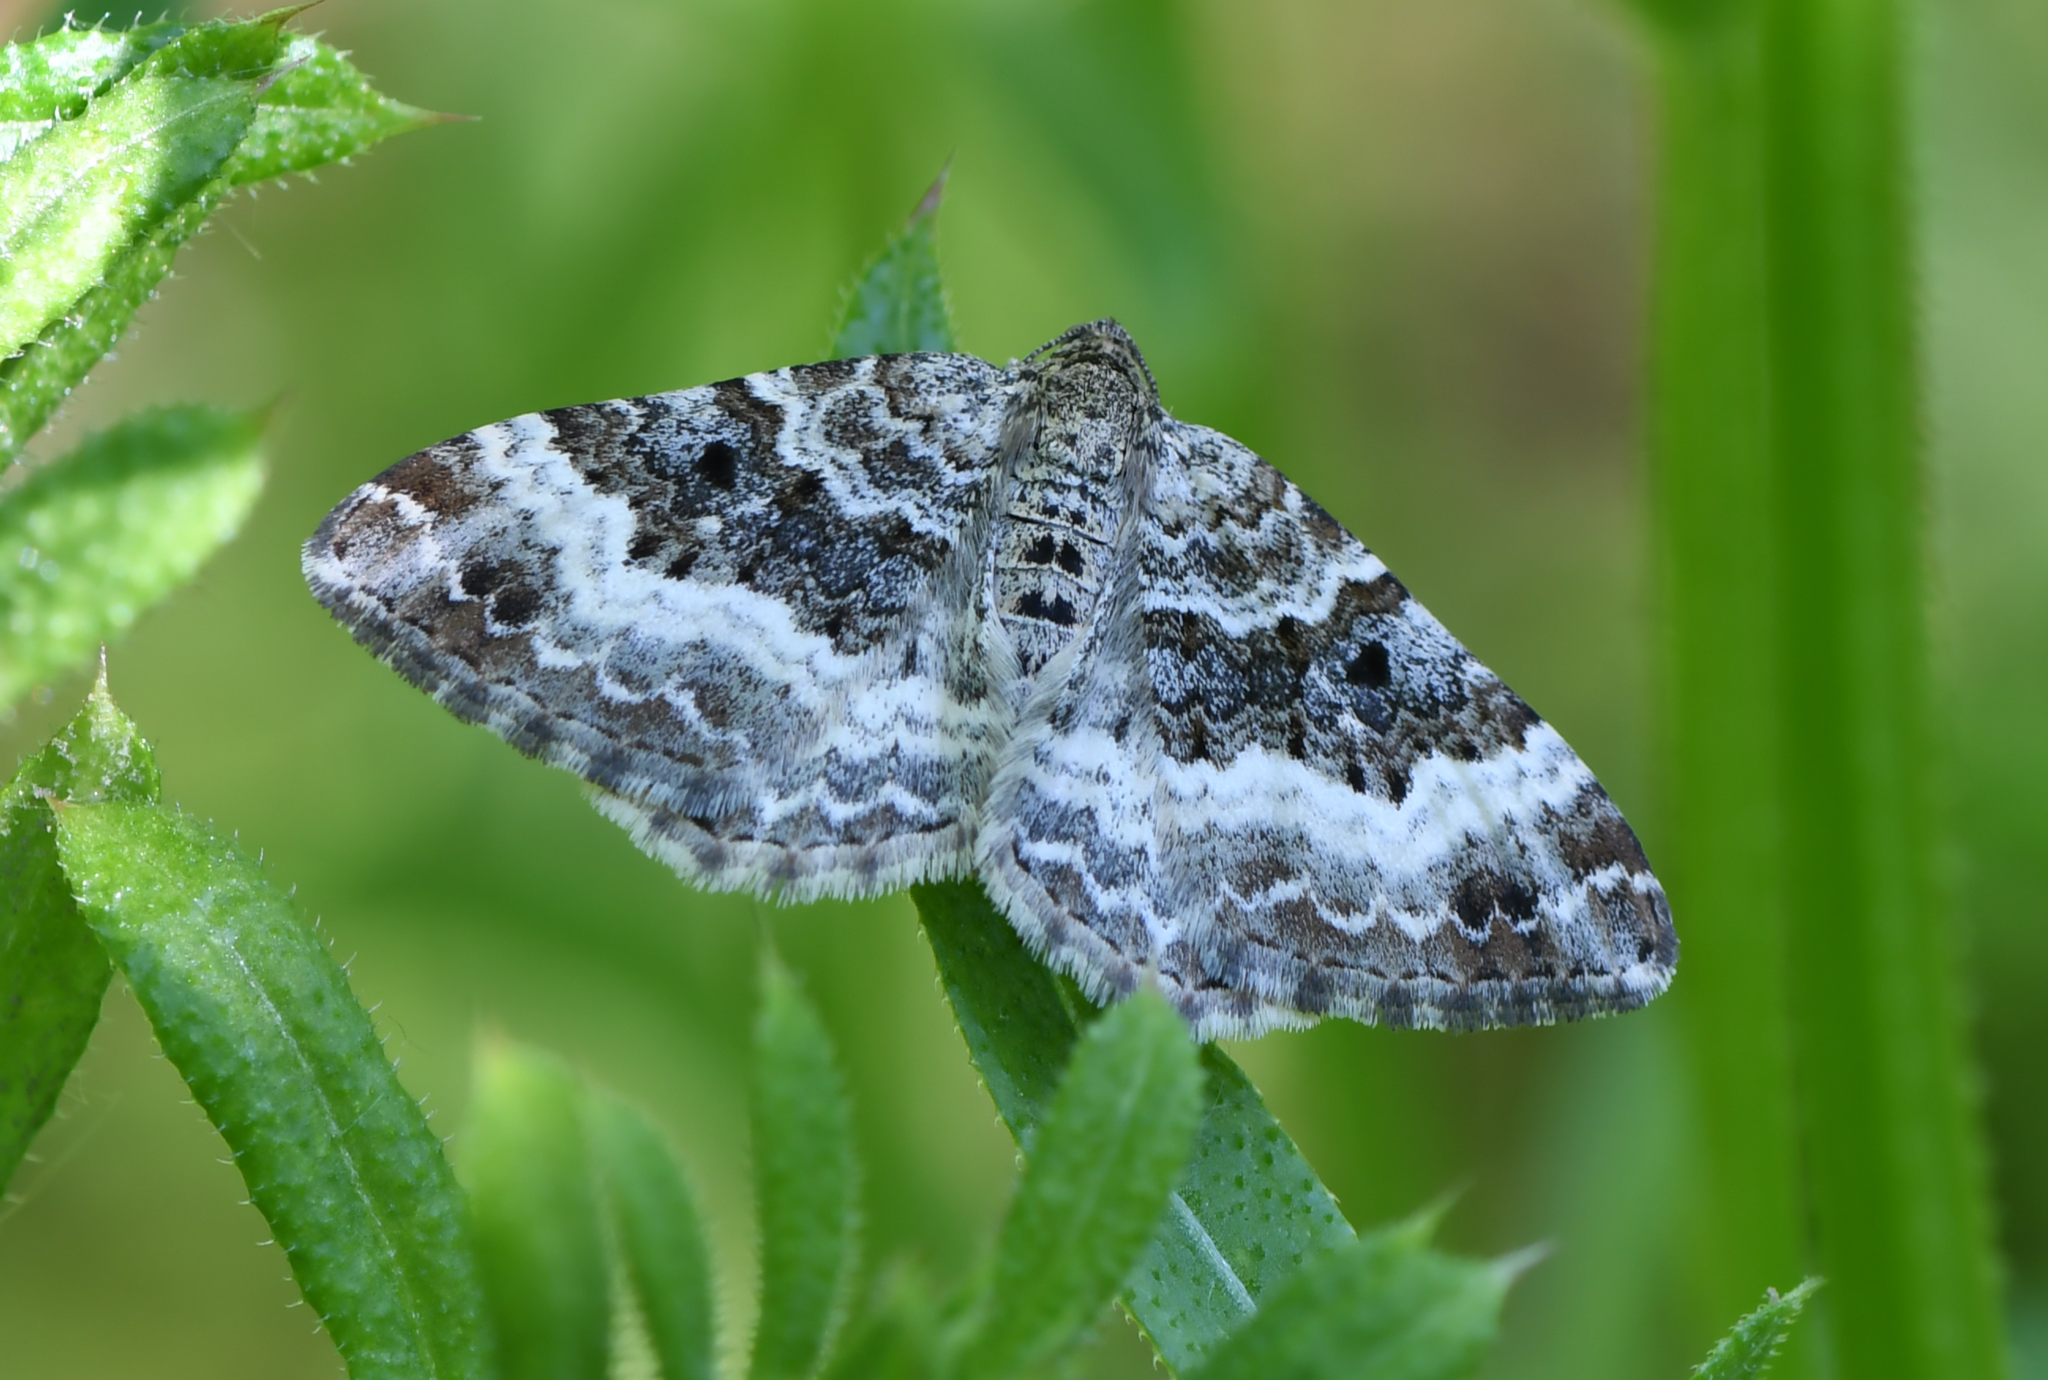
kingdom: Animalia
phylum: Arthropoda
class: Insecta
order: Lepidoptera
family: Geometridae
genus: Epirrhoe
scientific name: Epirrhoe alternata
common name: Common carpet
